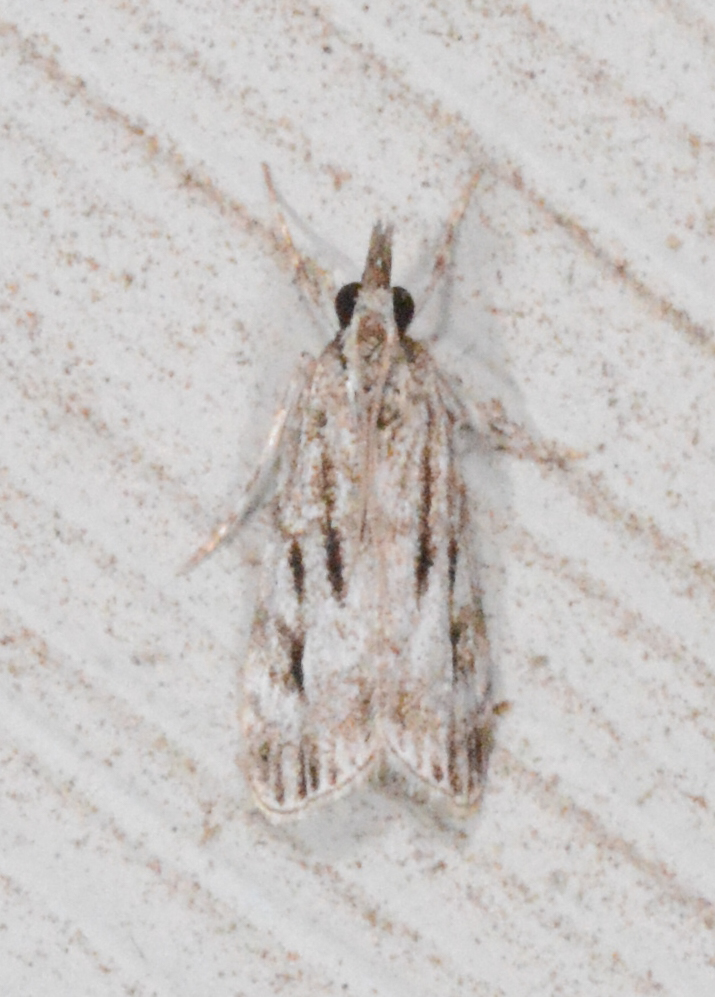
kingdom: Animalia
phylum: Arthropoda
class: Insecta
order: Lepidoptera
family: Crambidae
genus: Eudonia
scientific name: Eudonia strigalis
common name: Striped eudonia moth
